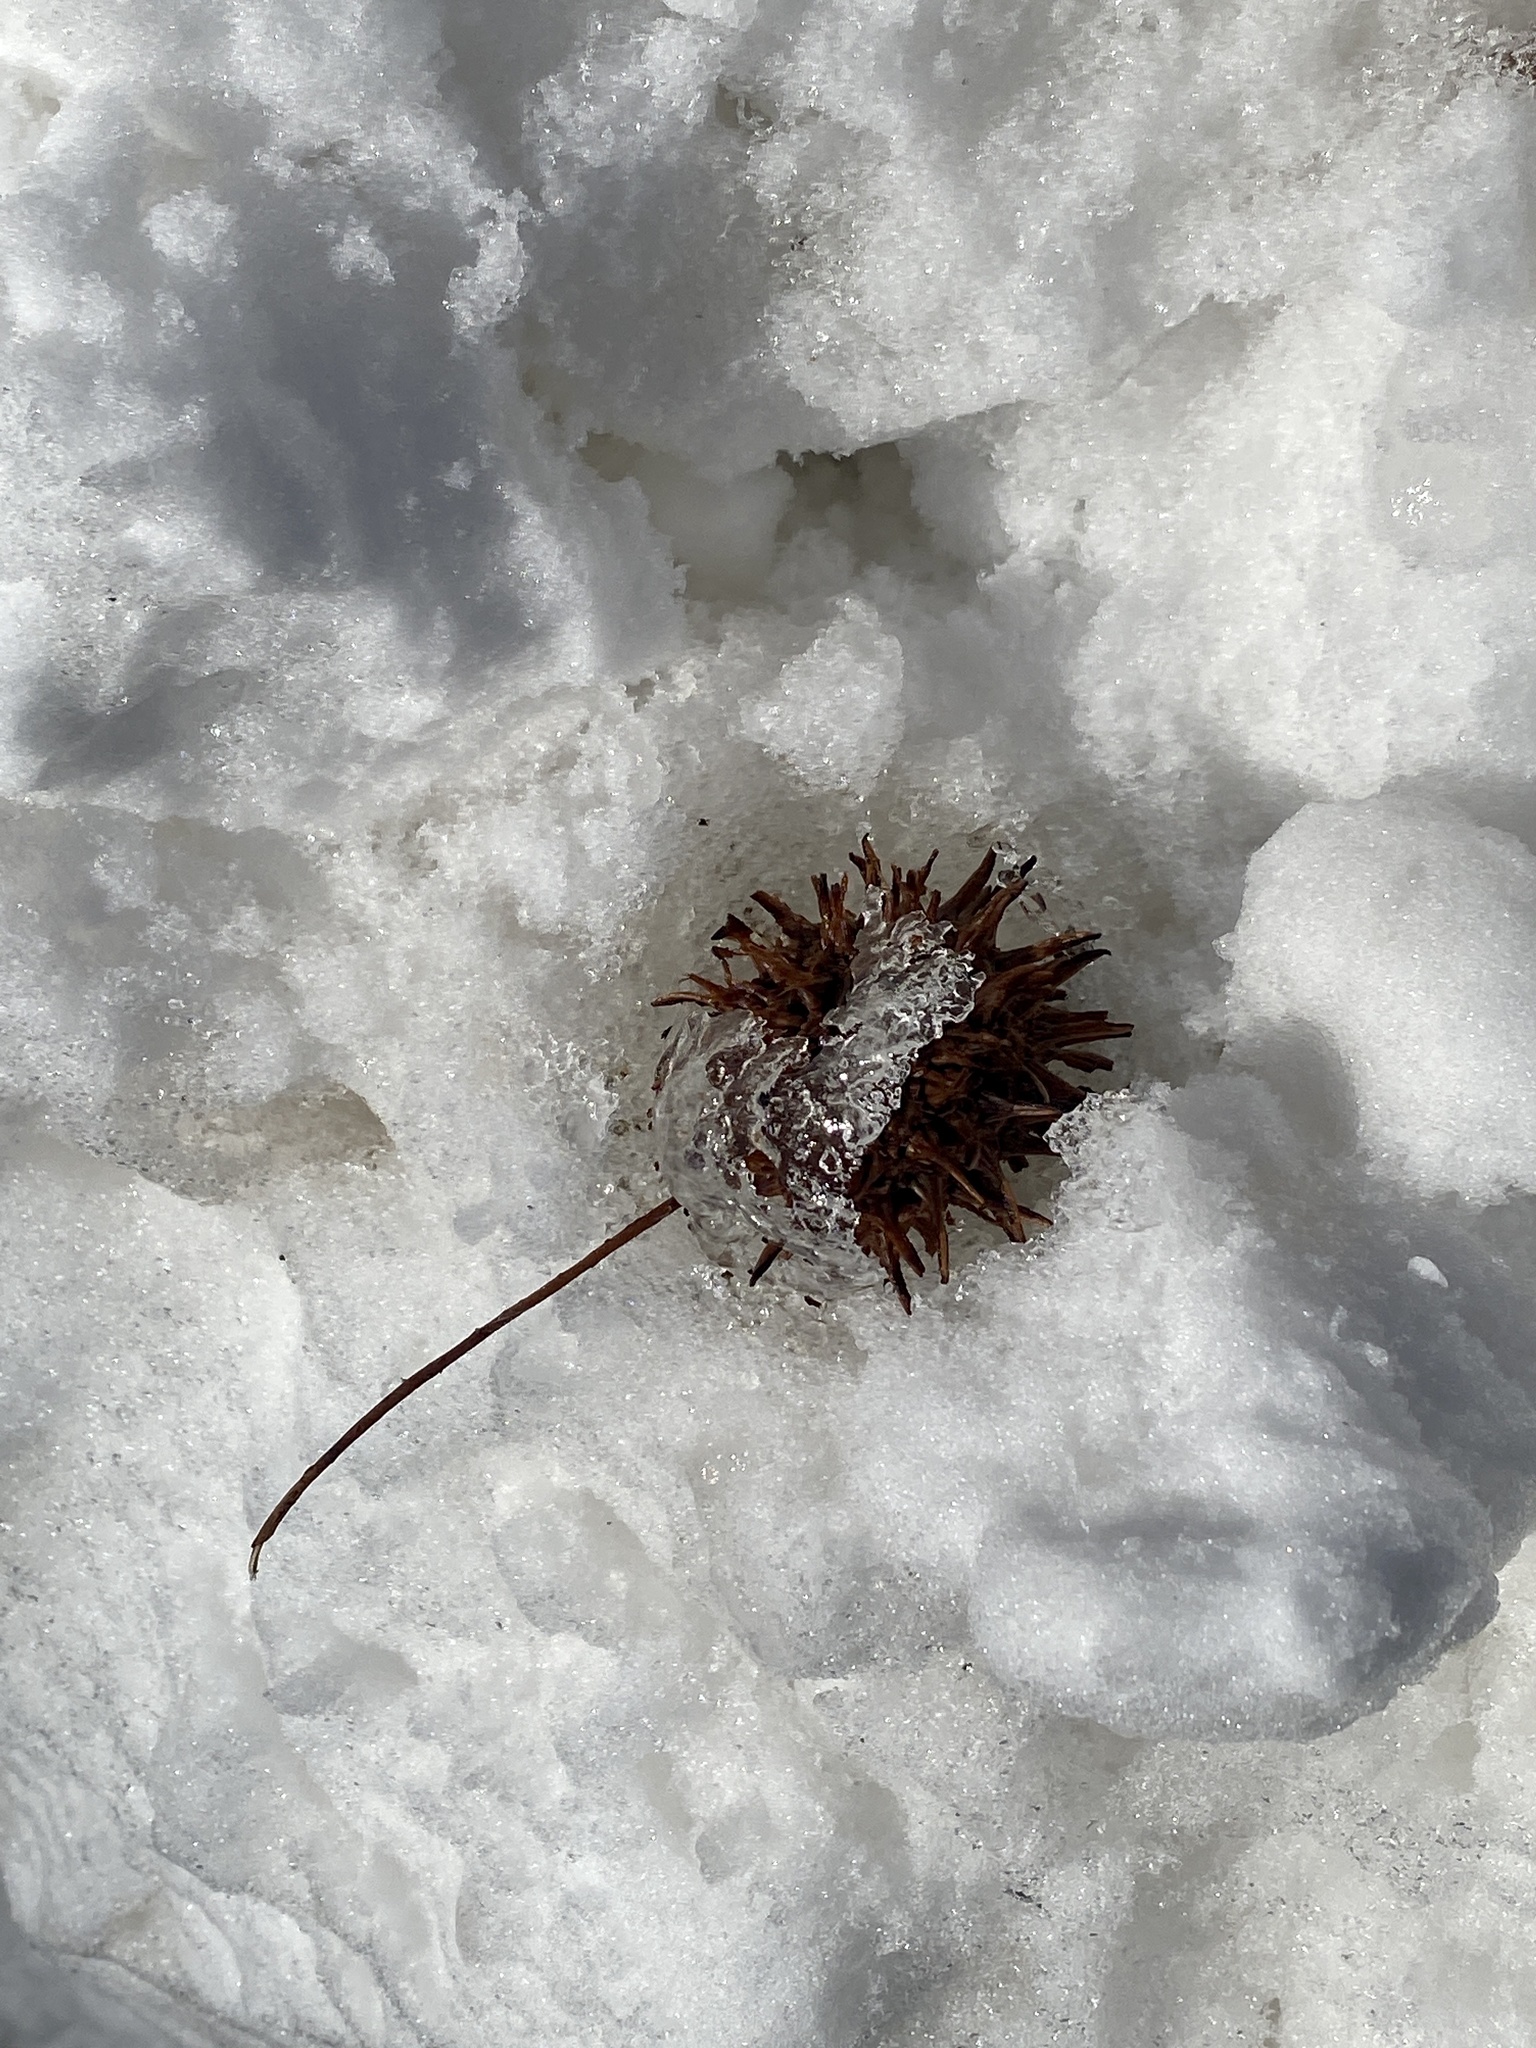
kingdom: Plantae
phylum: Tracheophyta
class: Magnoliopsida
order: Saxifragales
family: Altingiaceae
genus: Liquidambar
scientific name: Liquidambar styraciflua
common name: Sweet gum
